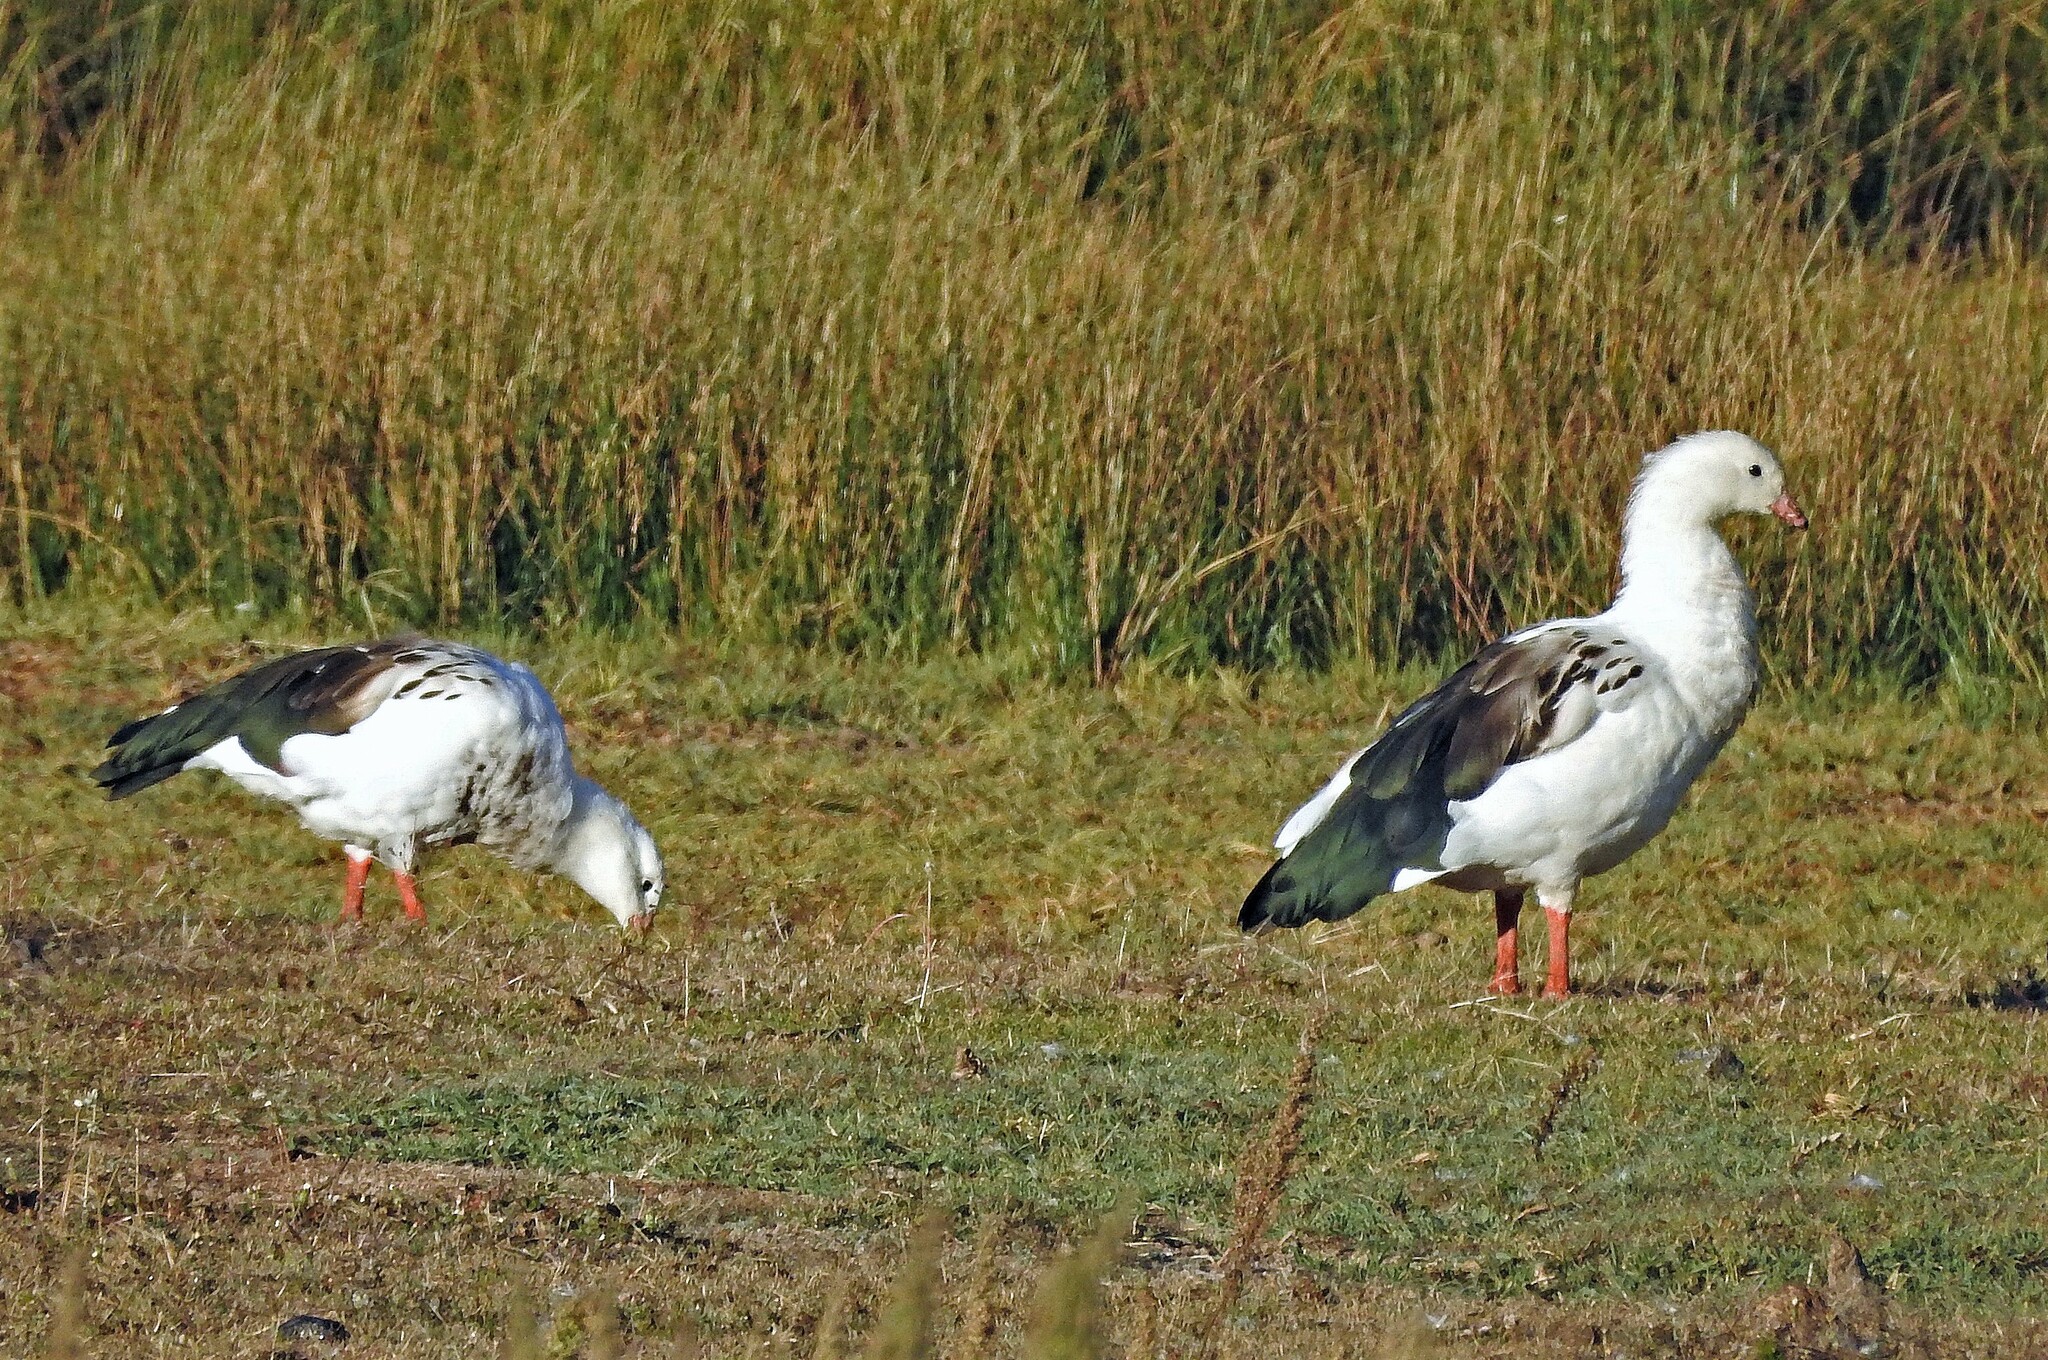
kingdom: Animalia
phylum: Chordata
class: Aves
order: Anseriformes
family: Anatidae
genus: Chloephaga
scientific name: Chloephaga melanoptera
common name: Andean goose
